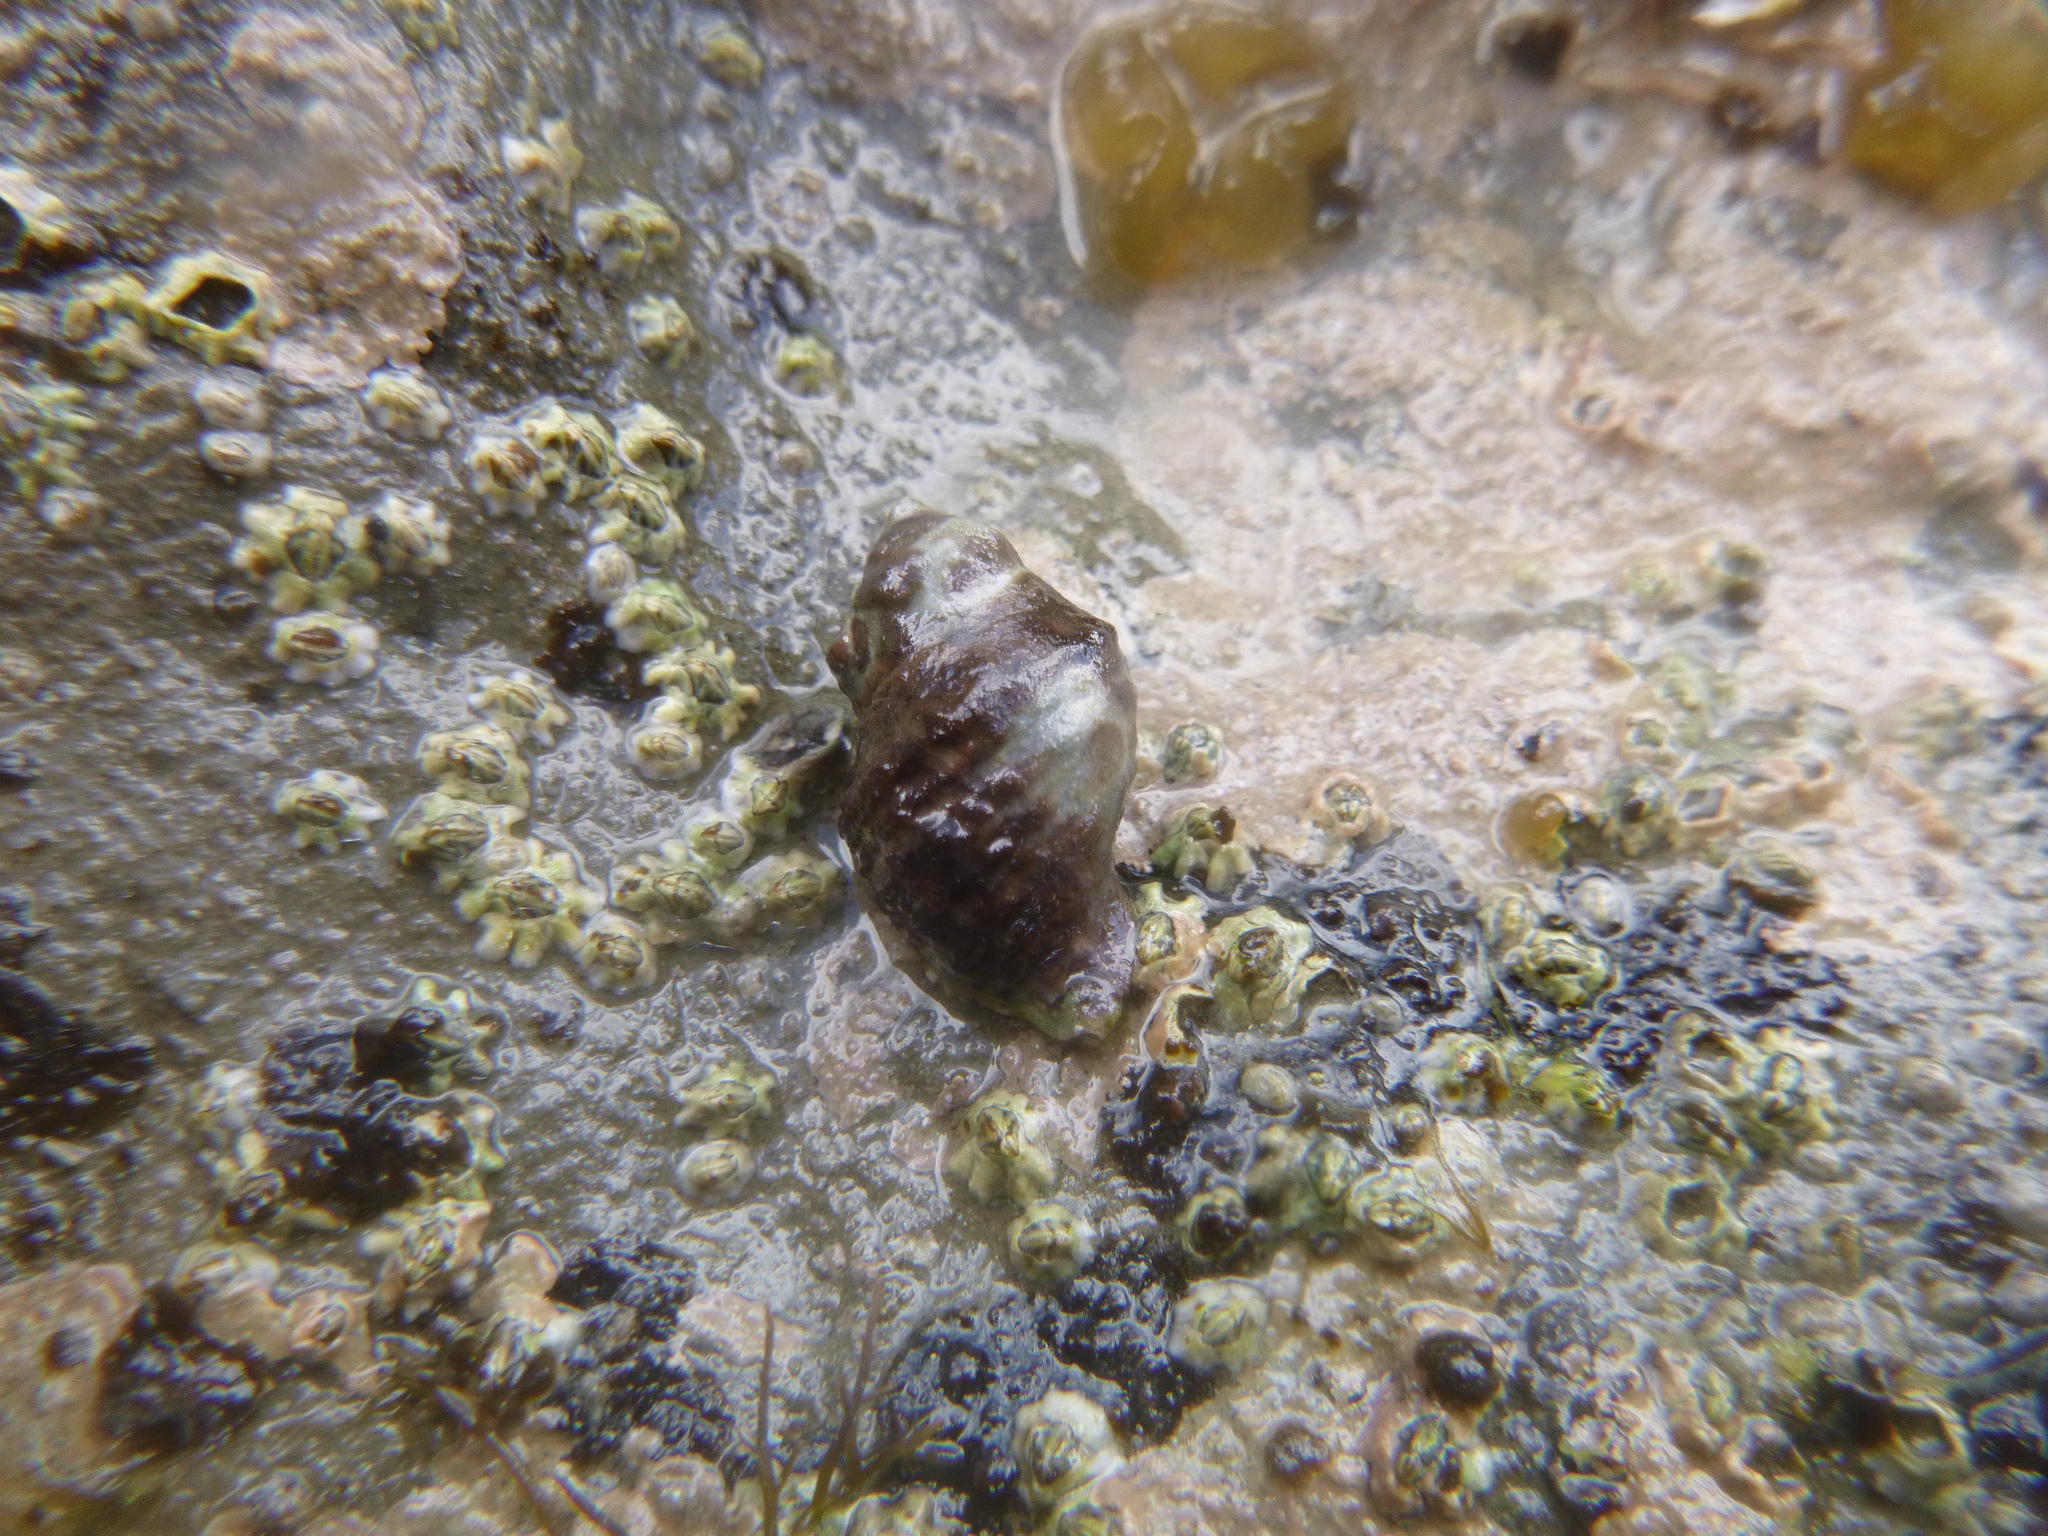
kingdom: Animalia
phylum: Mollusca
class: Gastropoda
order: Neogastropoda
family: Muricidae
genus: Haustrum
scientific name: Haustrum scobina
